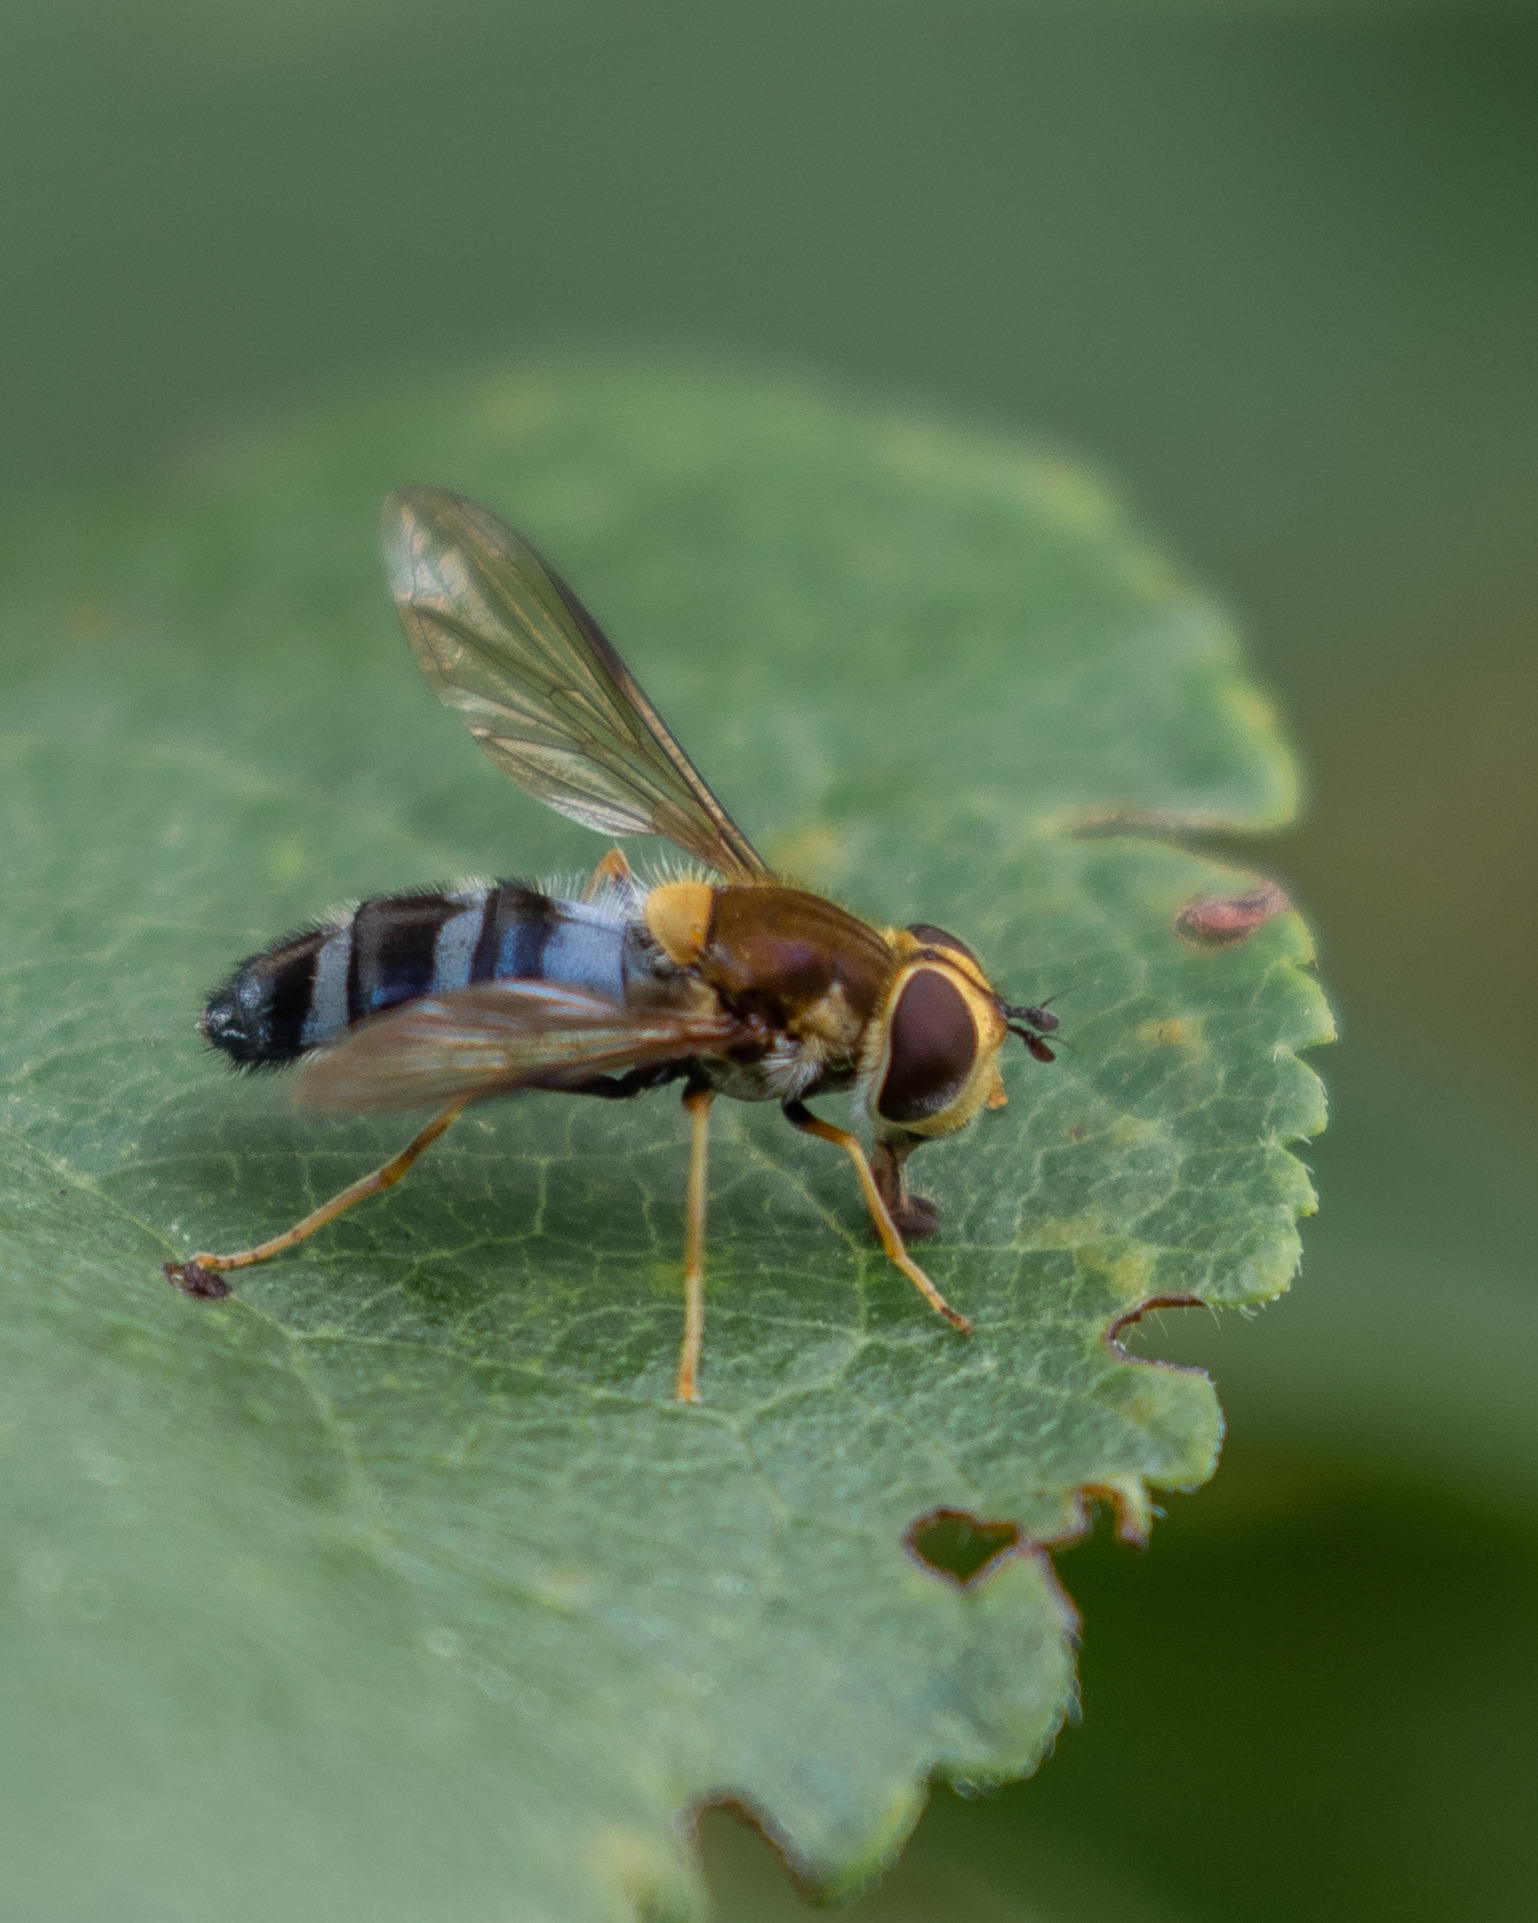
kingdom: Animalia
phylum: Arthropoda
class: Insecta
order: Diptera
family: Syrphidae
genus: Leucozona
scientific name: Leucozona glaucia
